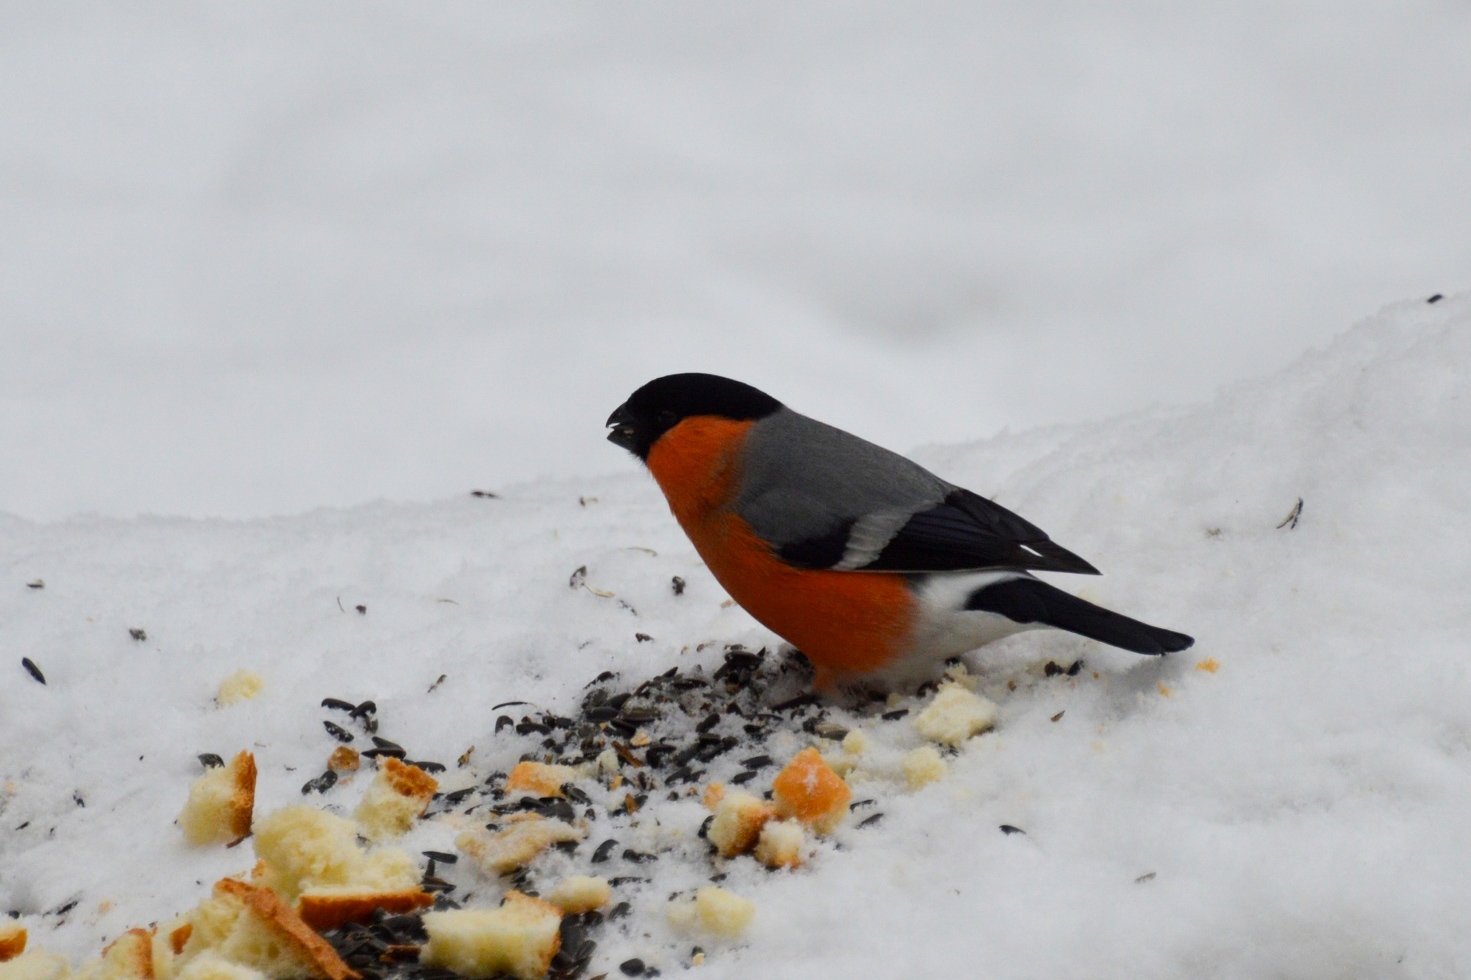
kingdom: Animalia
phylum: Chordata
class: Aves
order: Passeriformes
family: Fringillidae
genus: Pyrrhula
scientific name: Pyrrhula pyrrhula
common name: Eurasian bullfinch
